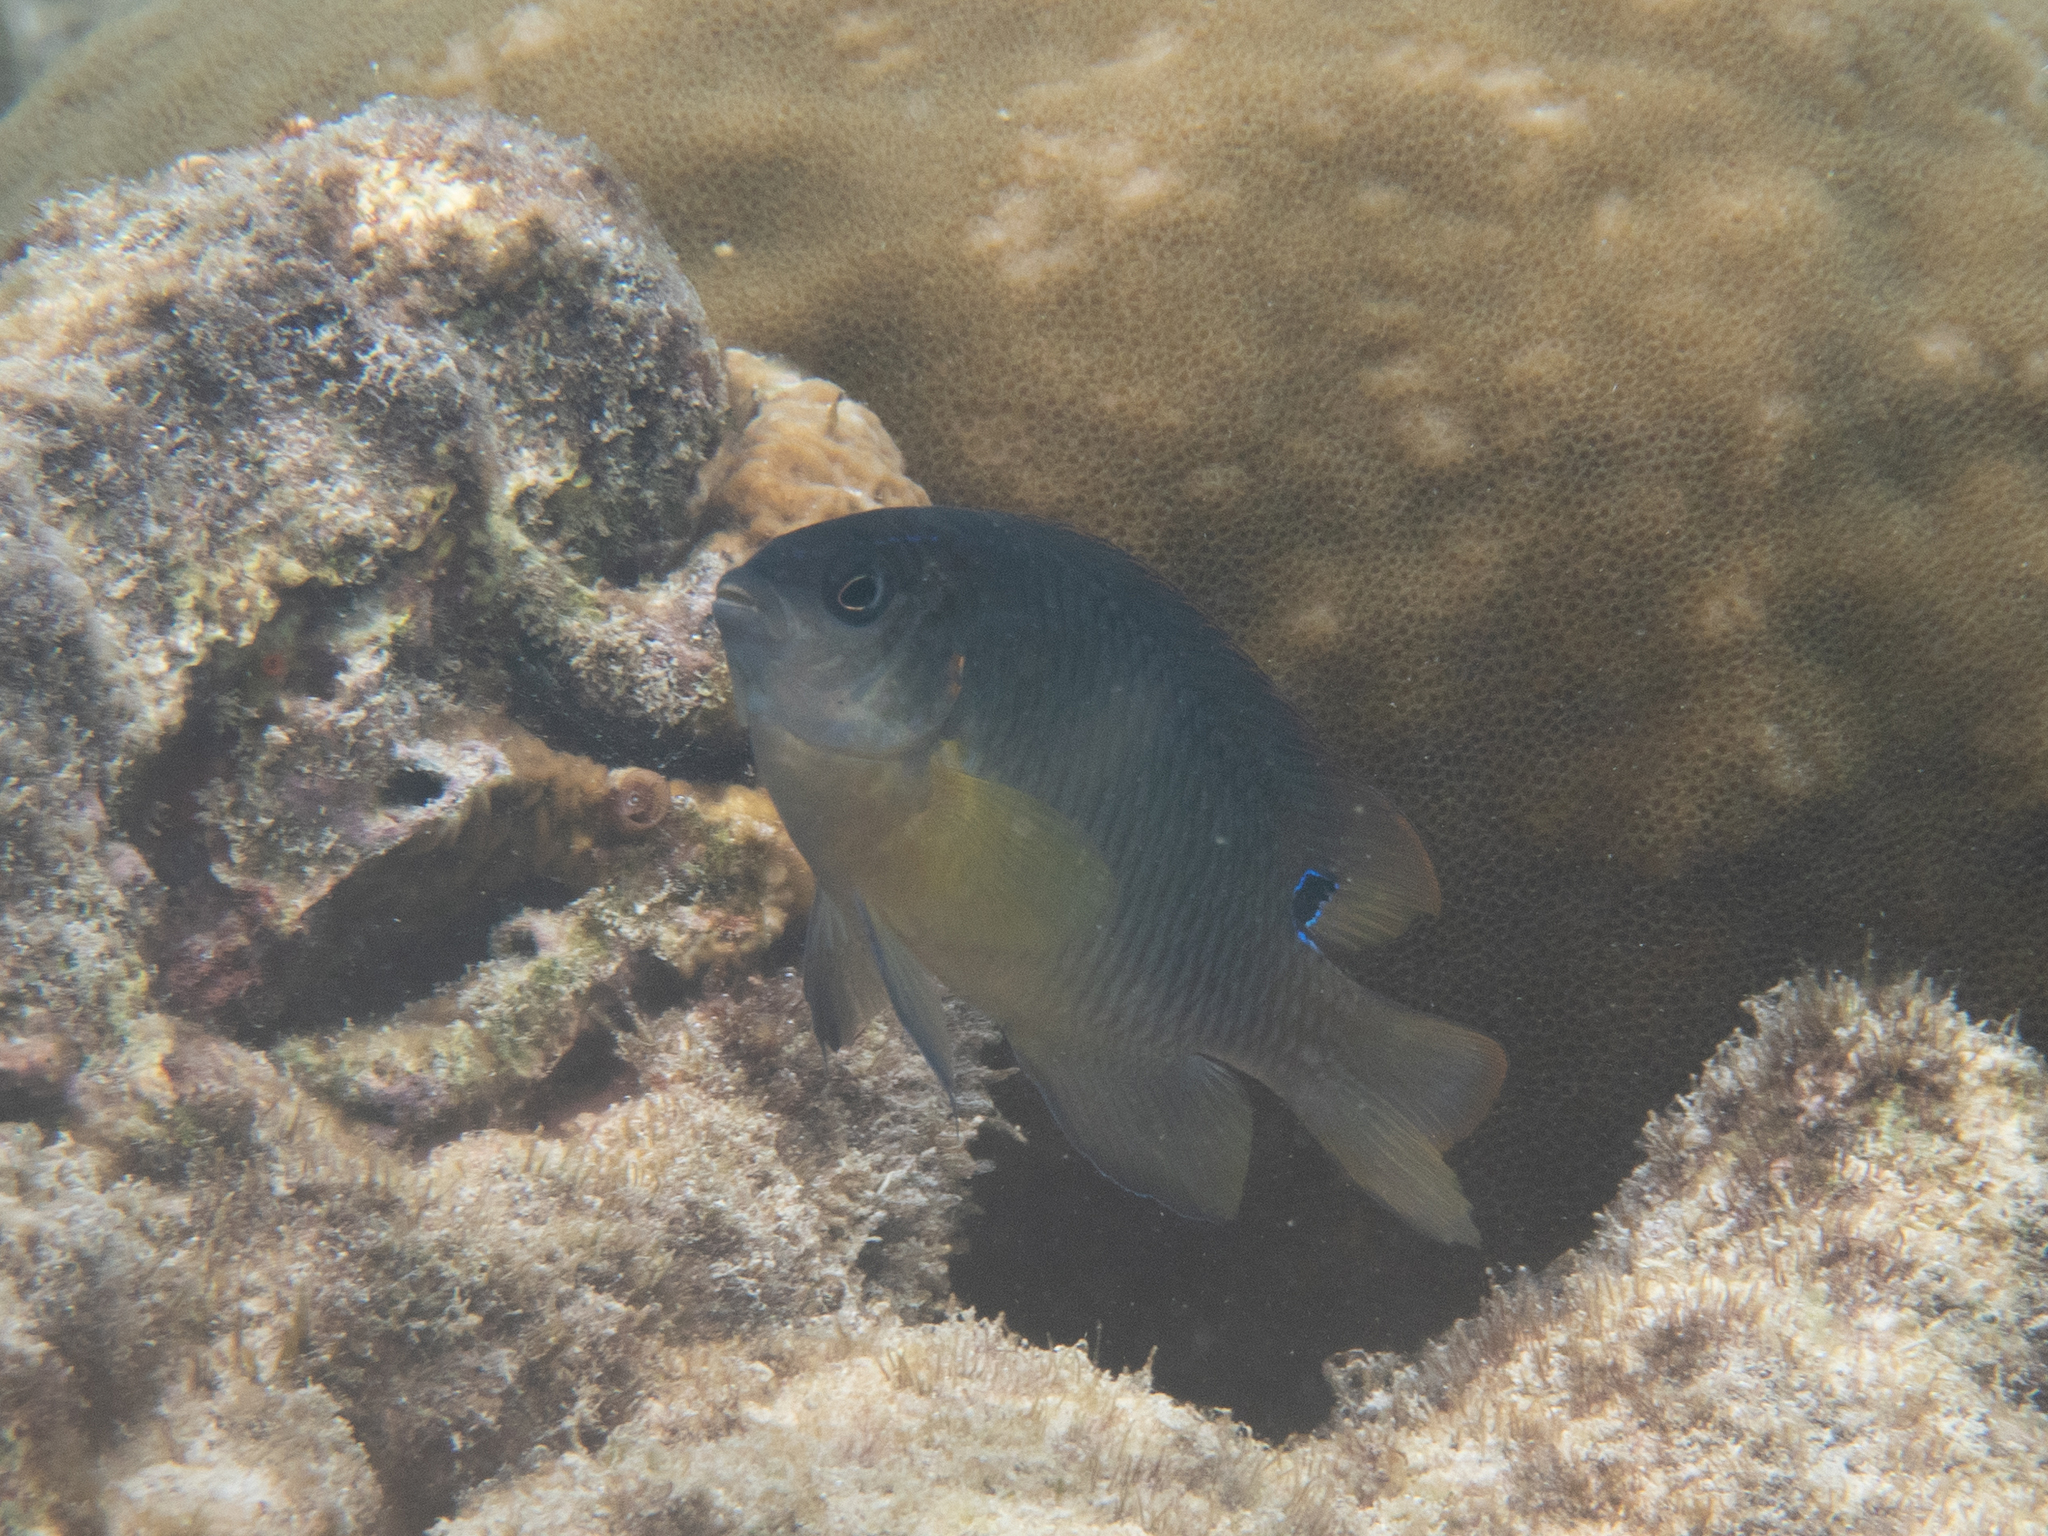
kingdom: Animalia
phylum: Chordata
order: Perciformes
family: Pomacentridae
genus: Chrysiptera
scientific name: Chrysiptera unimaculata
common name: Onespot demoiselle
